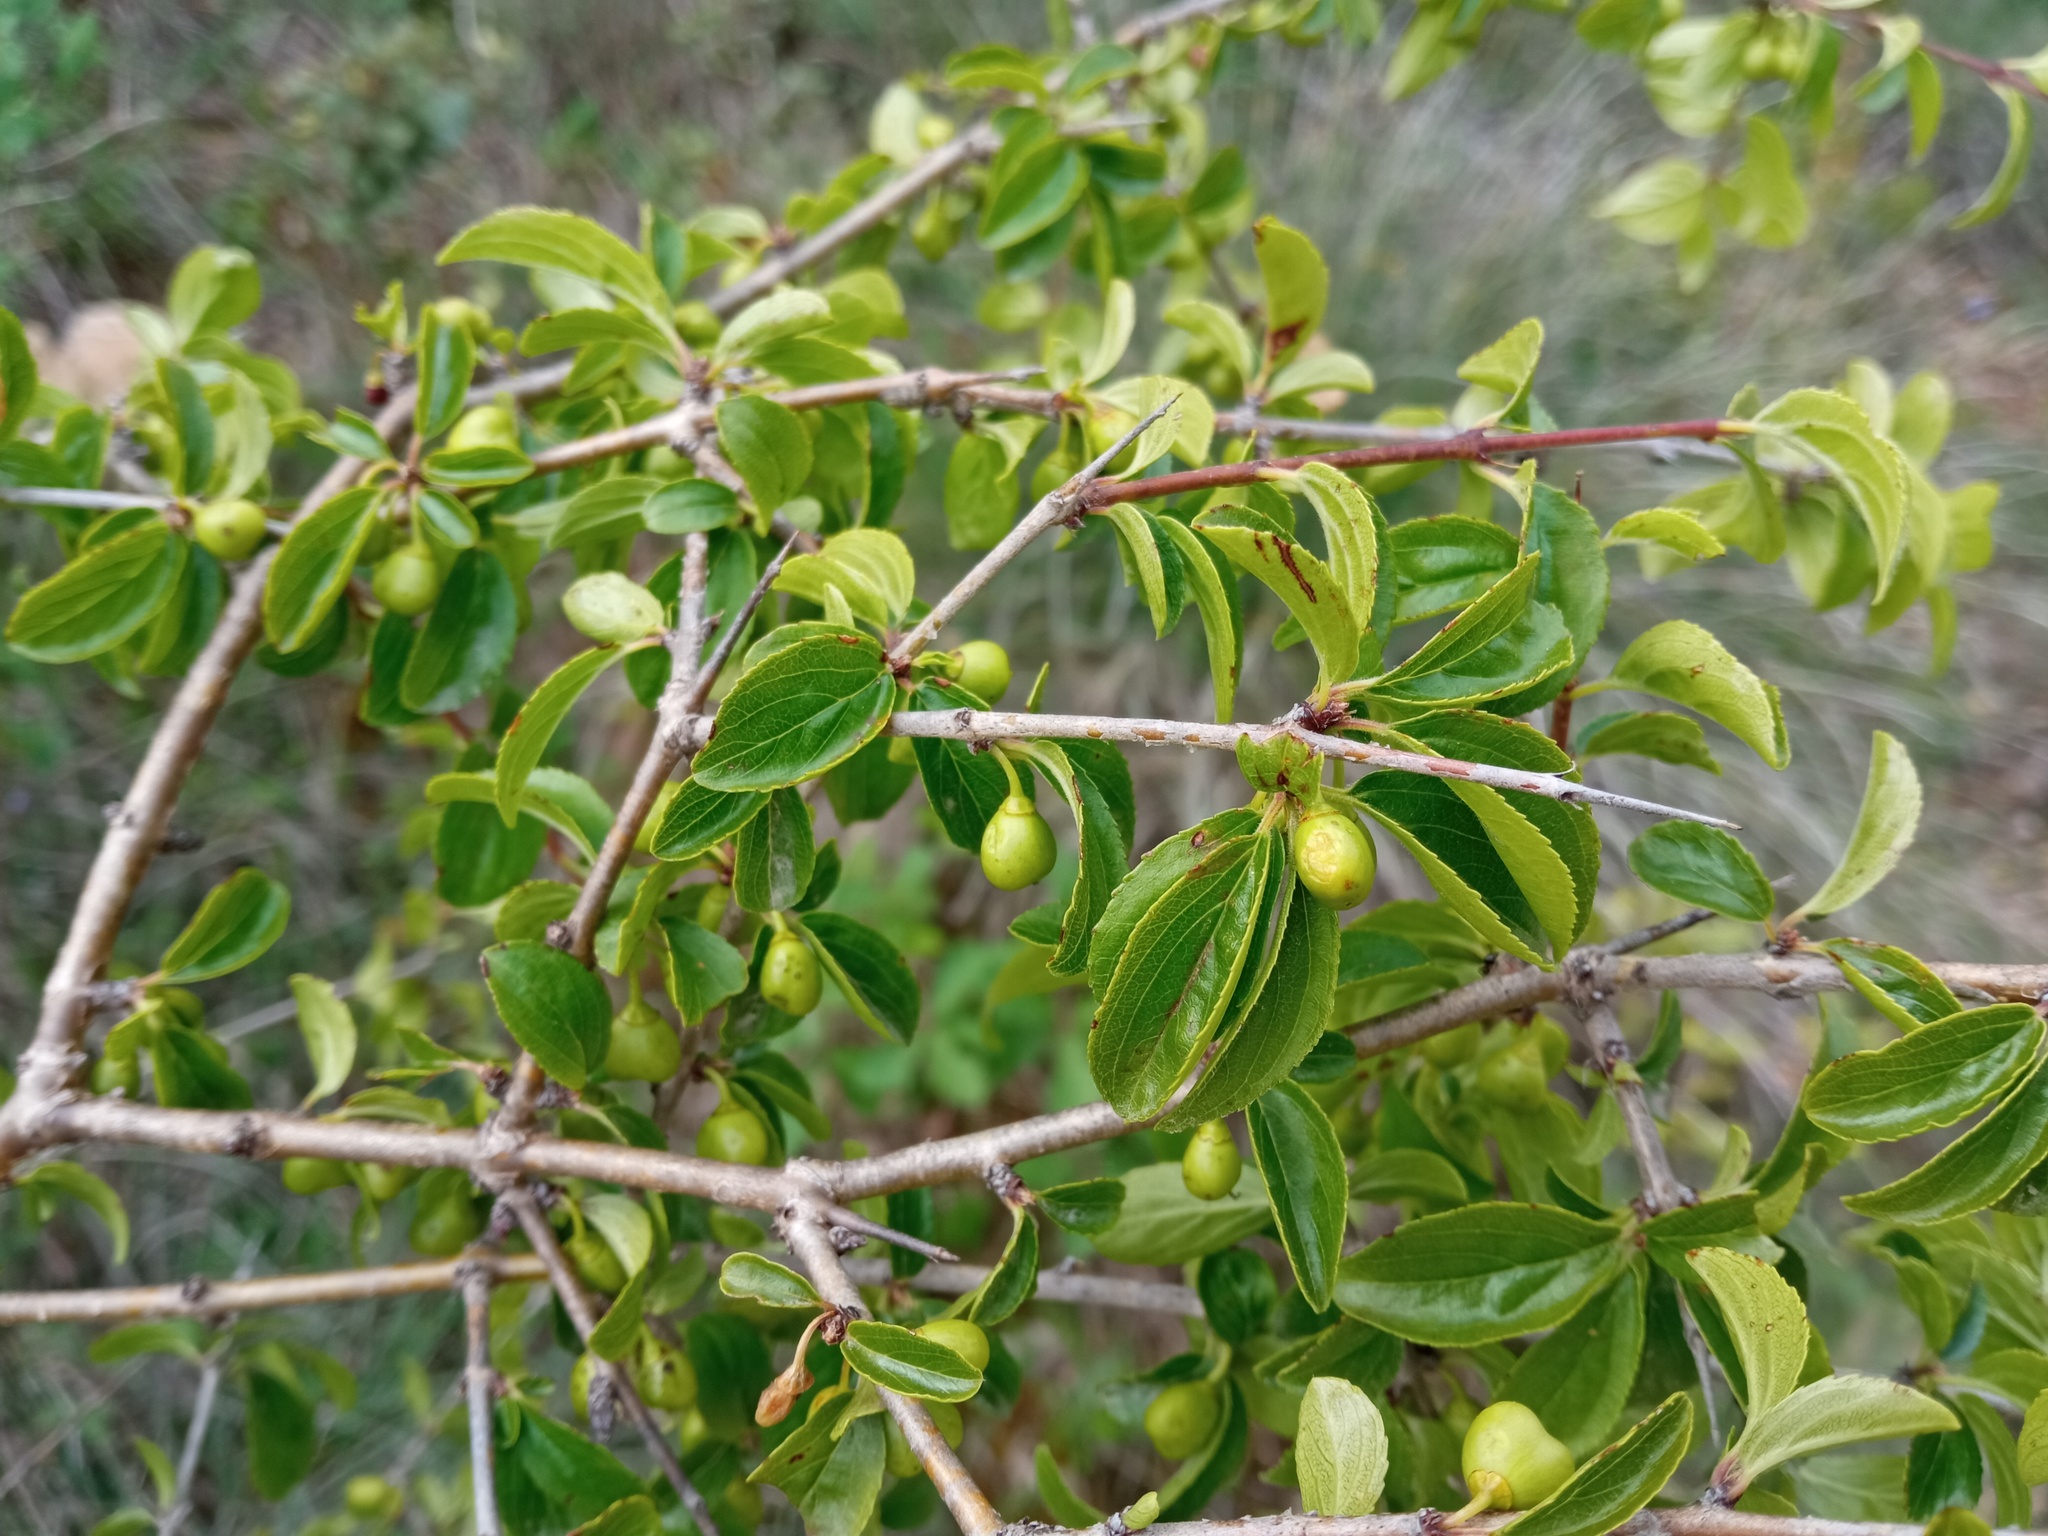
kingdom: Plantae
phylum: Tracheophyta
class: Magnoliopsida
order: Rosales
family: Rhamnaceae
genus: Rhamnus
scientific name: Rhamnus saxatilis
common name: Rock buckthorn
